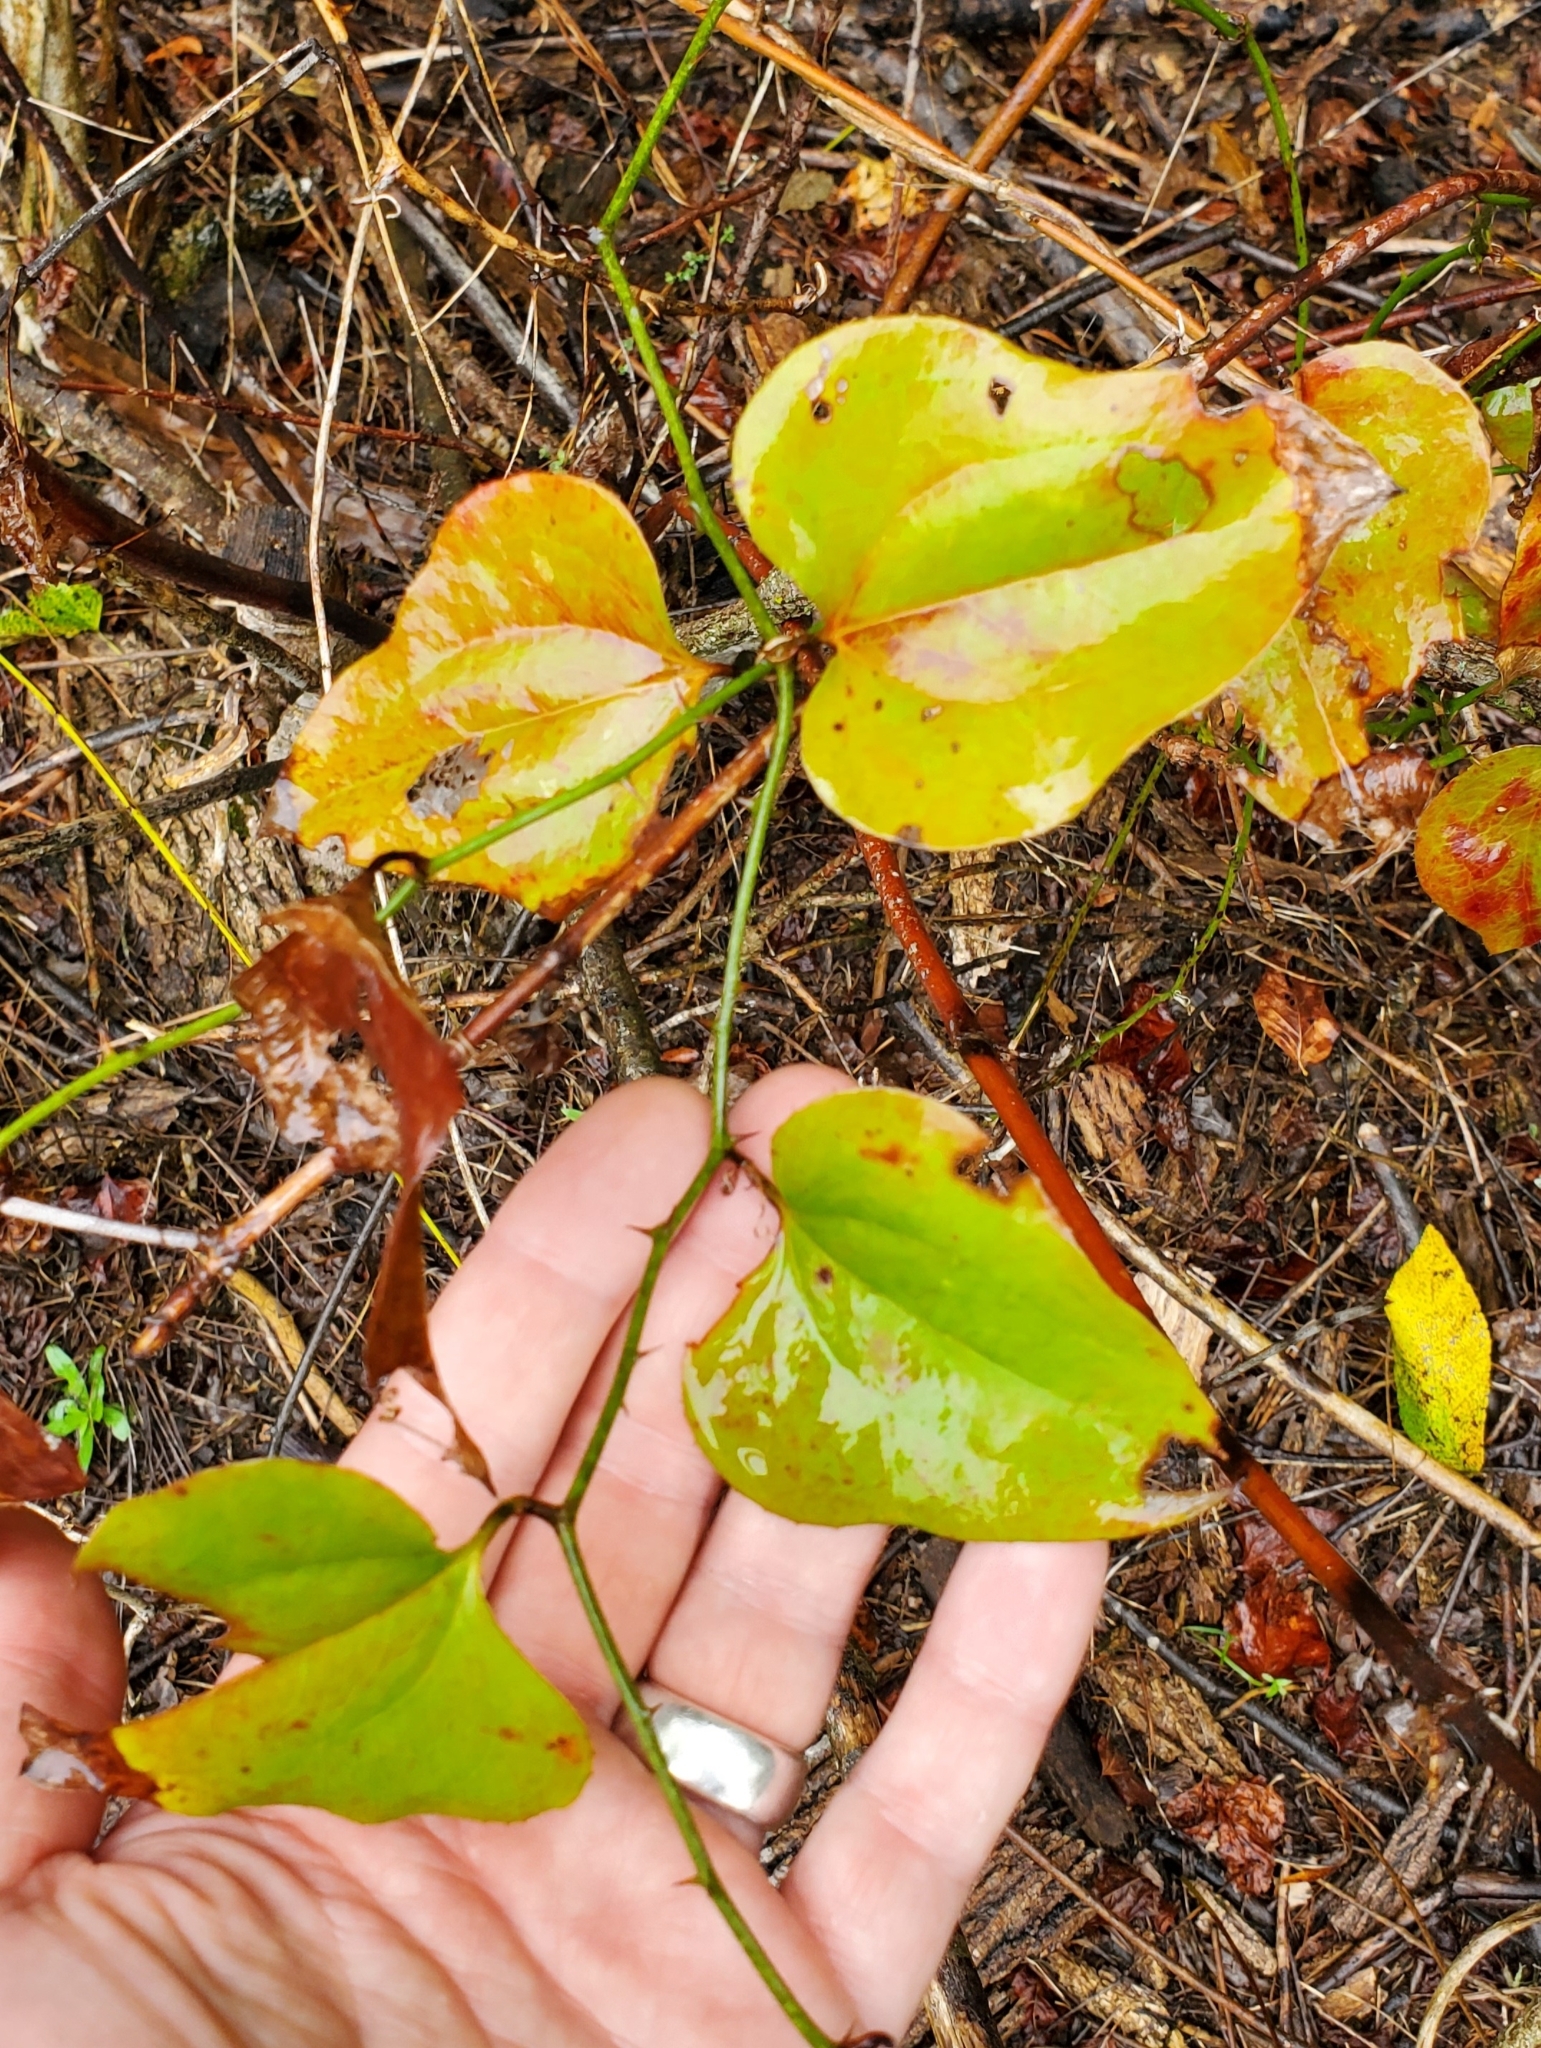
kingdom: Plantae
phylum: Tracheophyta
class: Liliopsida
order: Liliales
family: Smilacaceae
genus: Smilax
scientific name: Smilax bona-nox
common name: Catbrier
